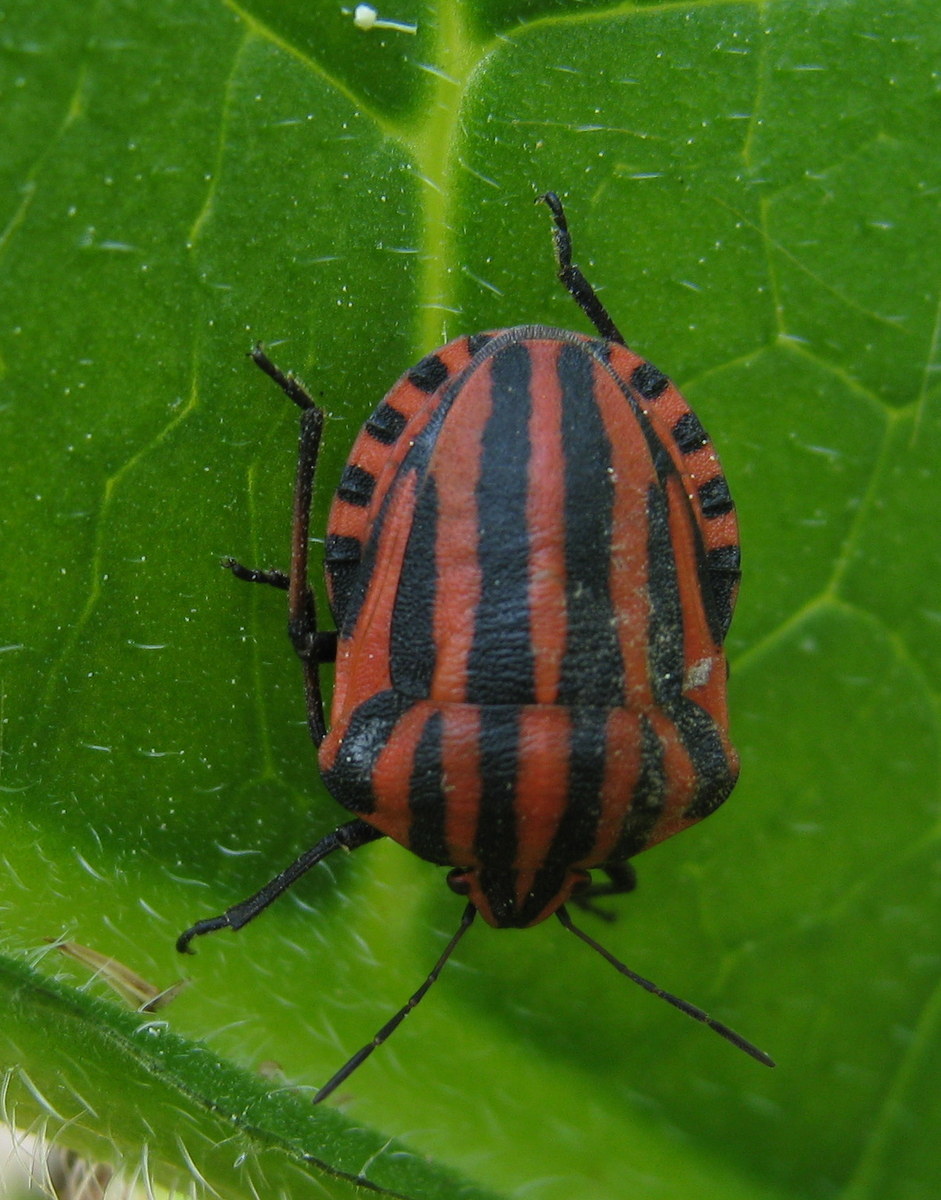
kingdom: Animalia
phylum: Arthropoda
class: Insecta
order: Hemiptera
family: Pentatomidae
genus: Graphosoma
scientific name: Graphosoma italicum
